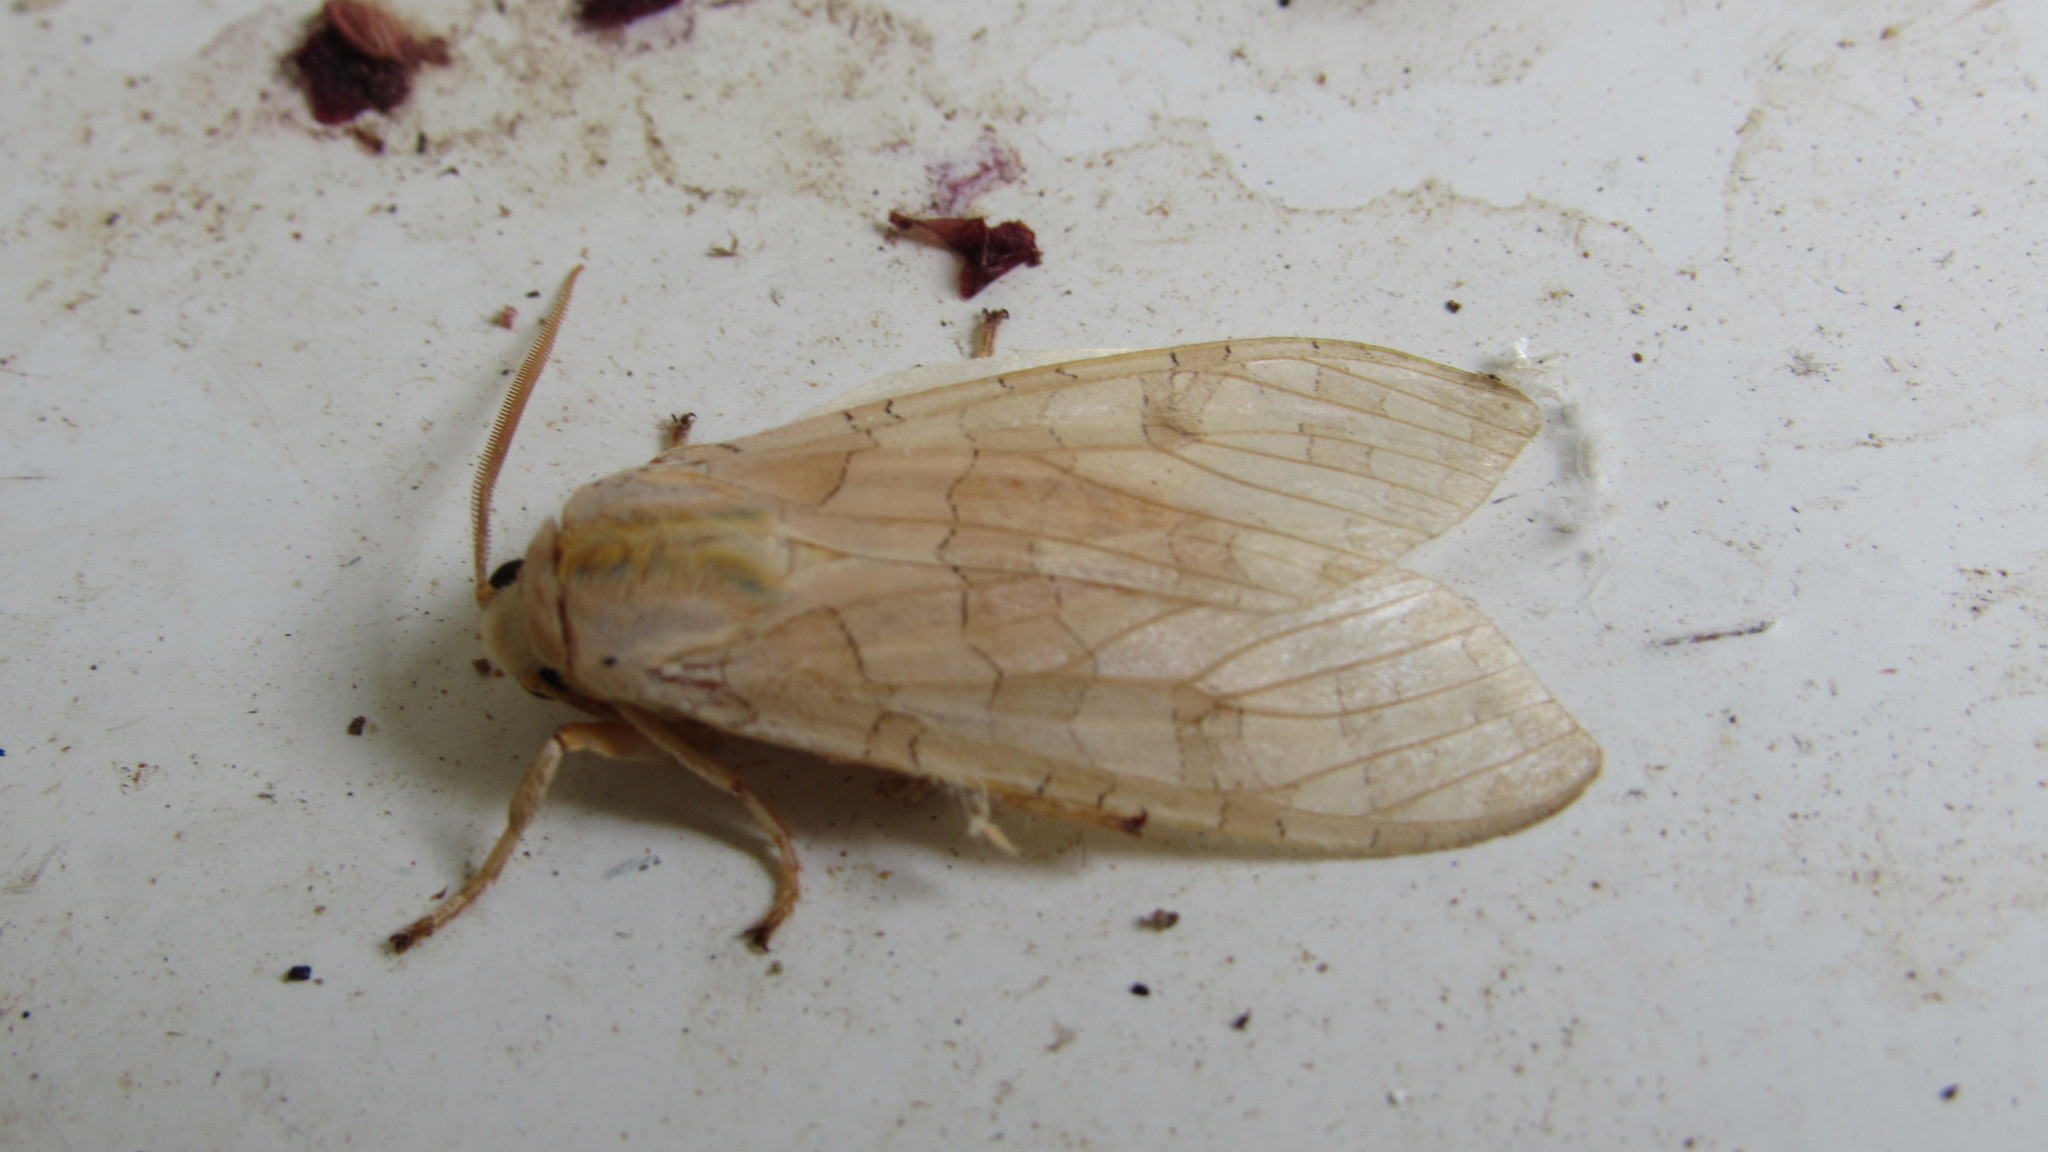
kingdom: Animalia
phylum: Arthropoda
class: Insecta
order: Lepidoptera
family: Erebidae
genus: Halysidota
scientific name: Halysidota tessellaris
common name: Banded tussock moth
